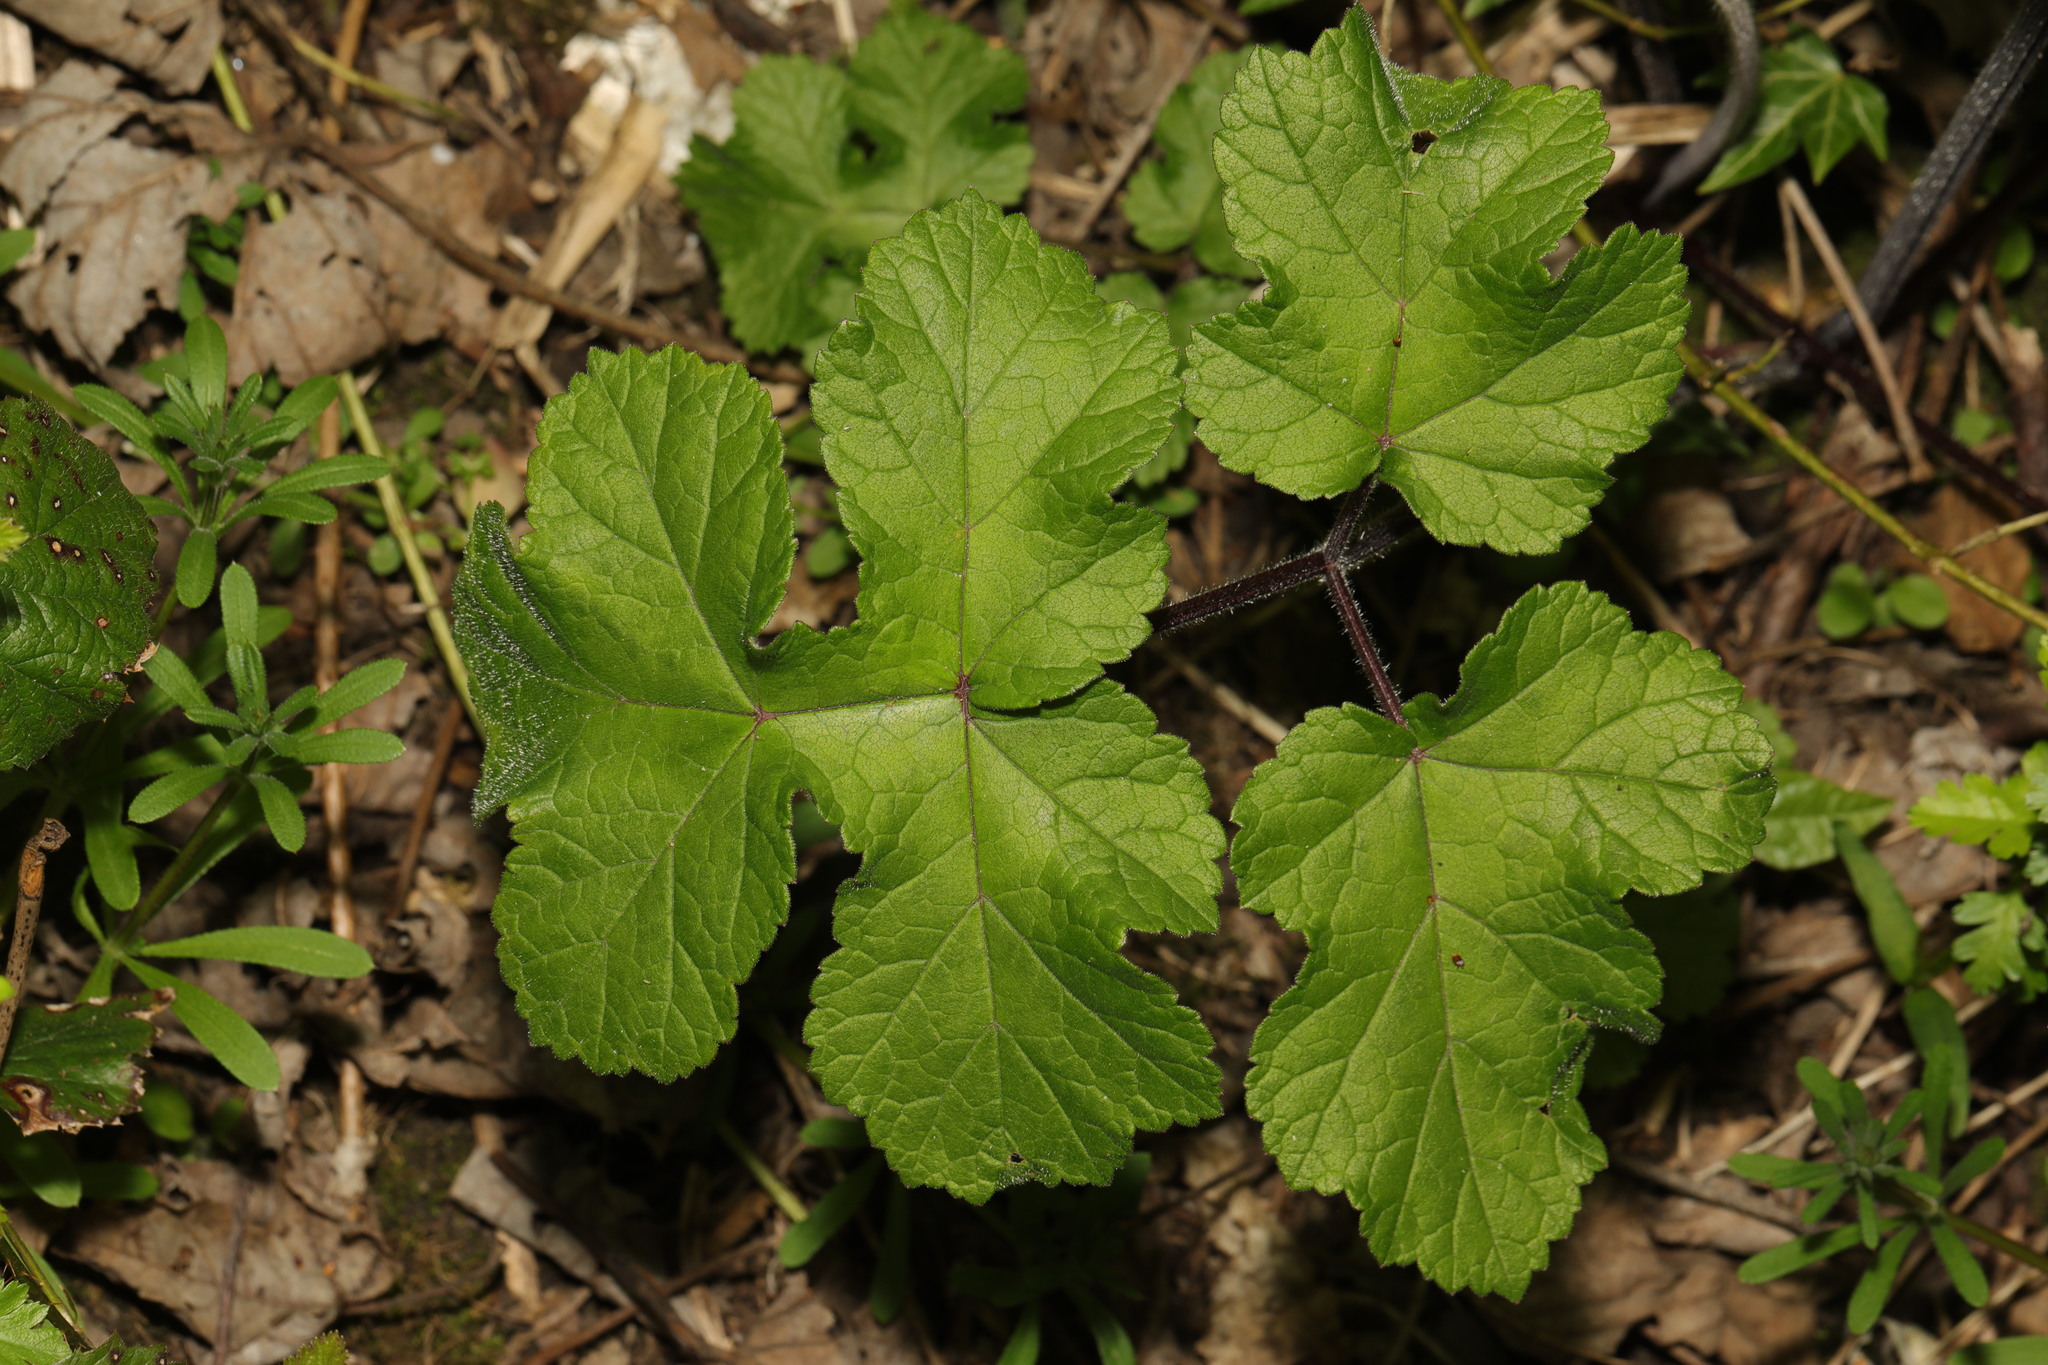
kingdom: Plantae
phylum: Tracheophyta
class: Magnoliopsida
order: Apiales
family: Apiaceae
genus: Heracleum
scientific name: Heracleum sphondylium
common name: Hogweed
